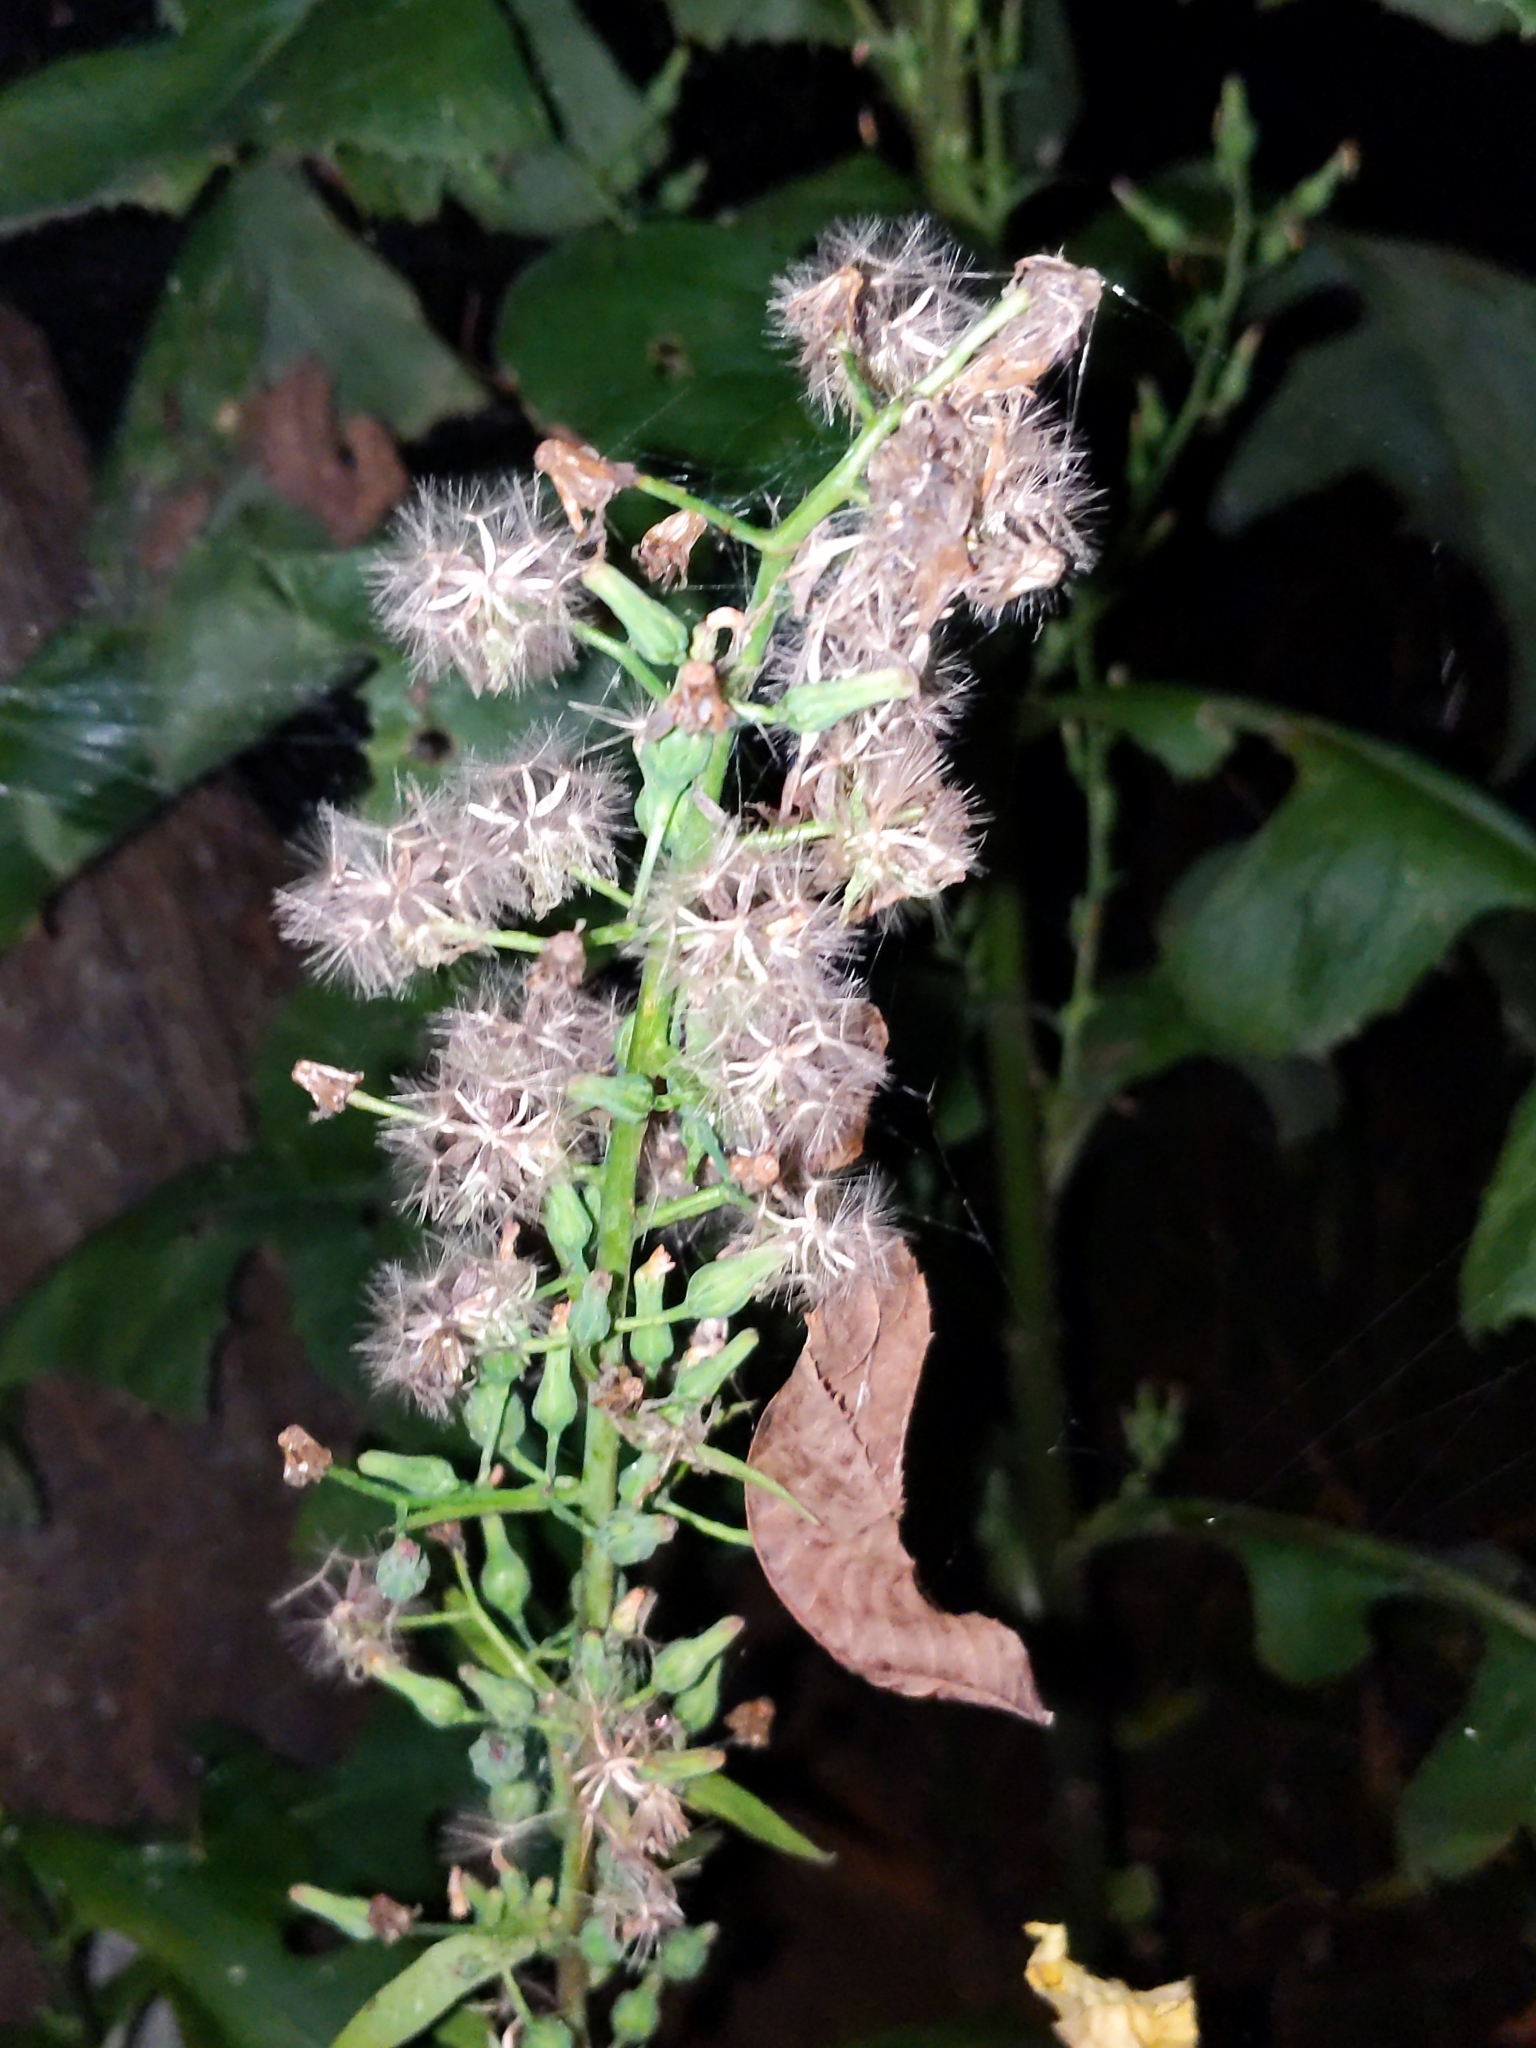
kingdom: Plantae
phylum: Tracheophyta
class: Magnoliopsida
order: Asterales
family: Asteraceae
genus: Lactuca
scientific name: Lactuca biennis
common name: Blue wood lettuce
